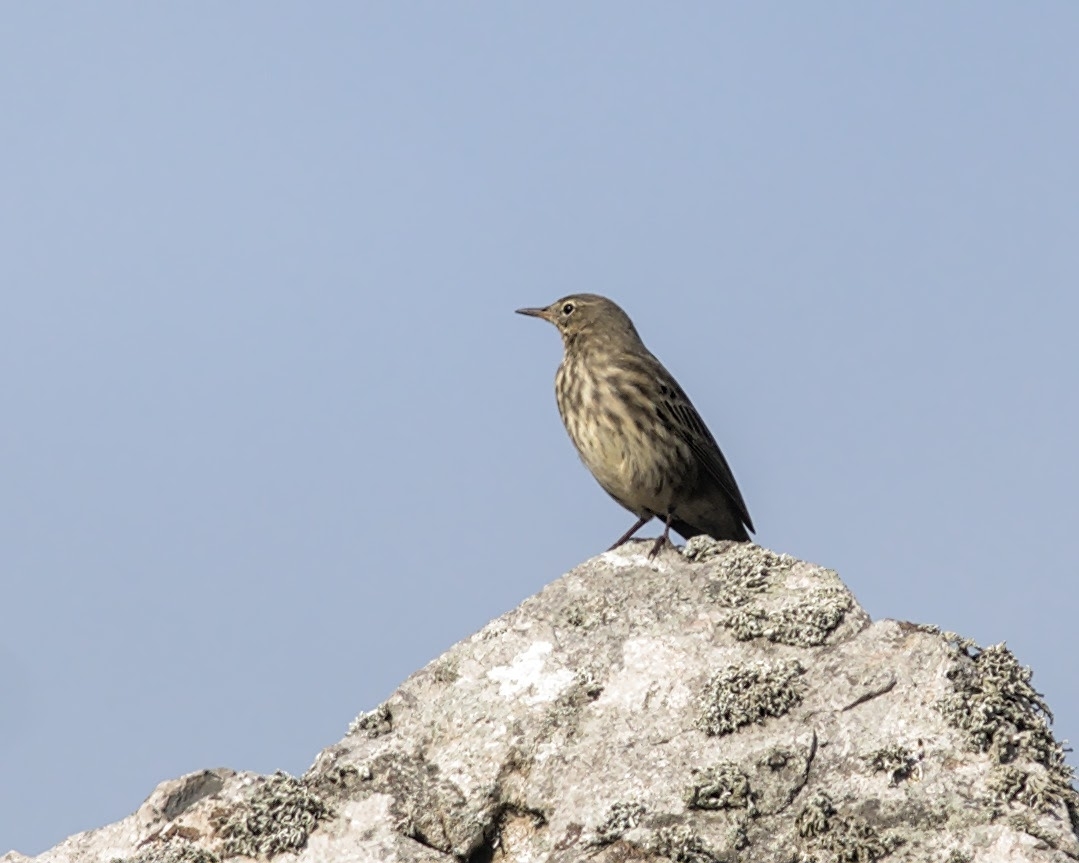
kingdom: Animalia
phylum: Chordata
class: Aves
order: Passeriformes
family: Motacillidae
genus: Anthus
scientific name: Anthus petrosus
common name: Eurasian rock pipit
